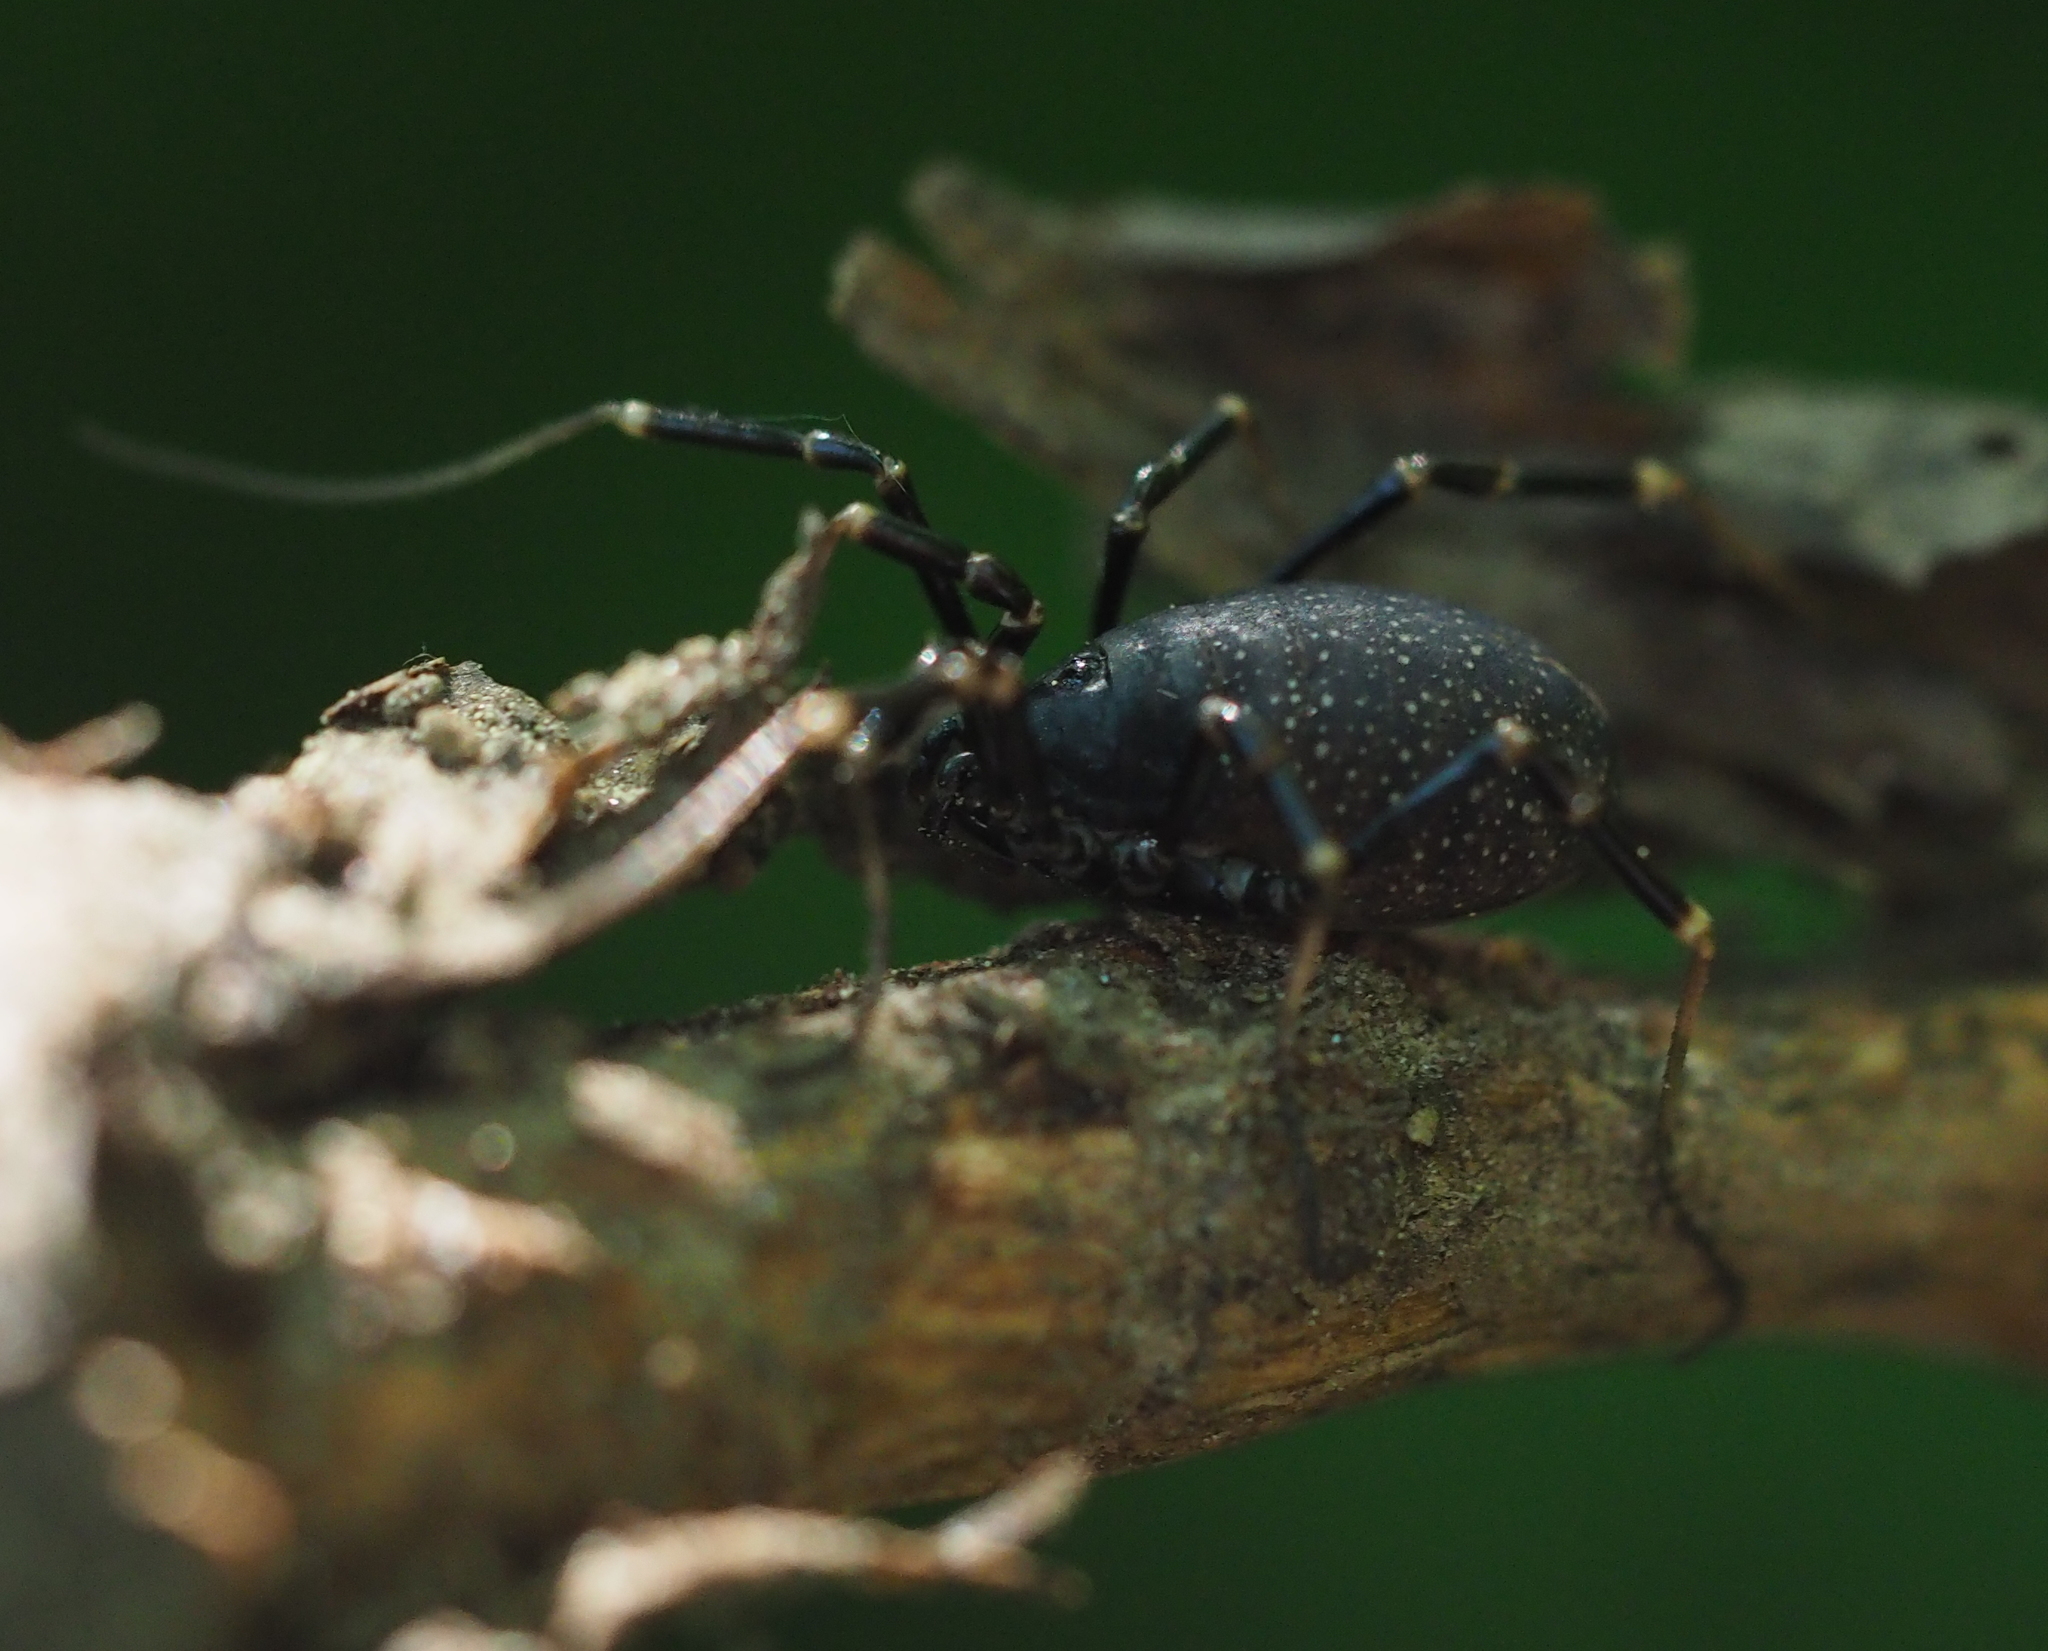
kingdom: Animalia
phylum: Arthropoda
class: Arachnida
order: Opiliones
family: Phalangiidae
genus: Egaenus
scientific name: Egaenus convexus
